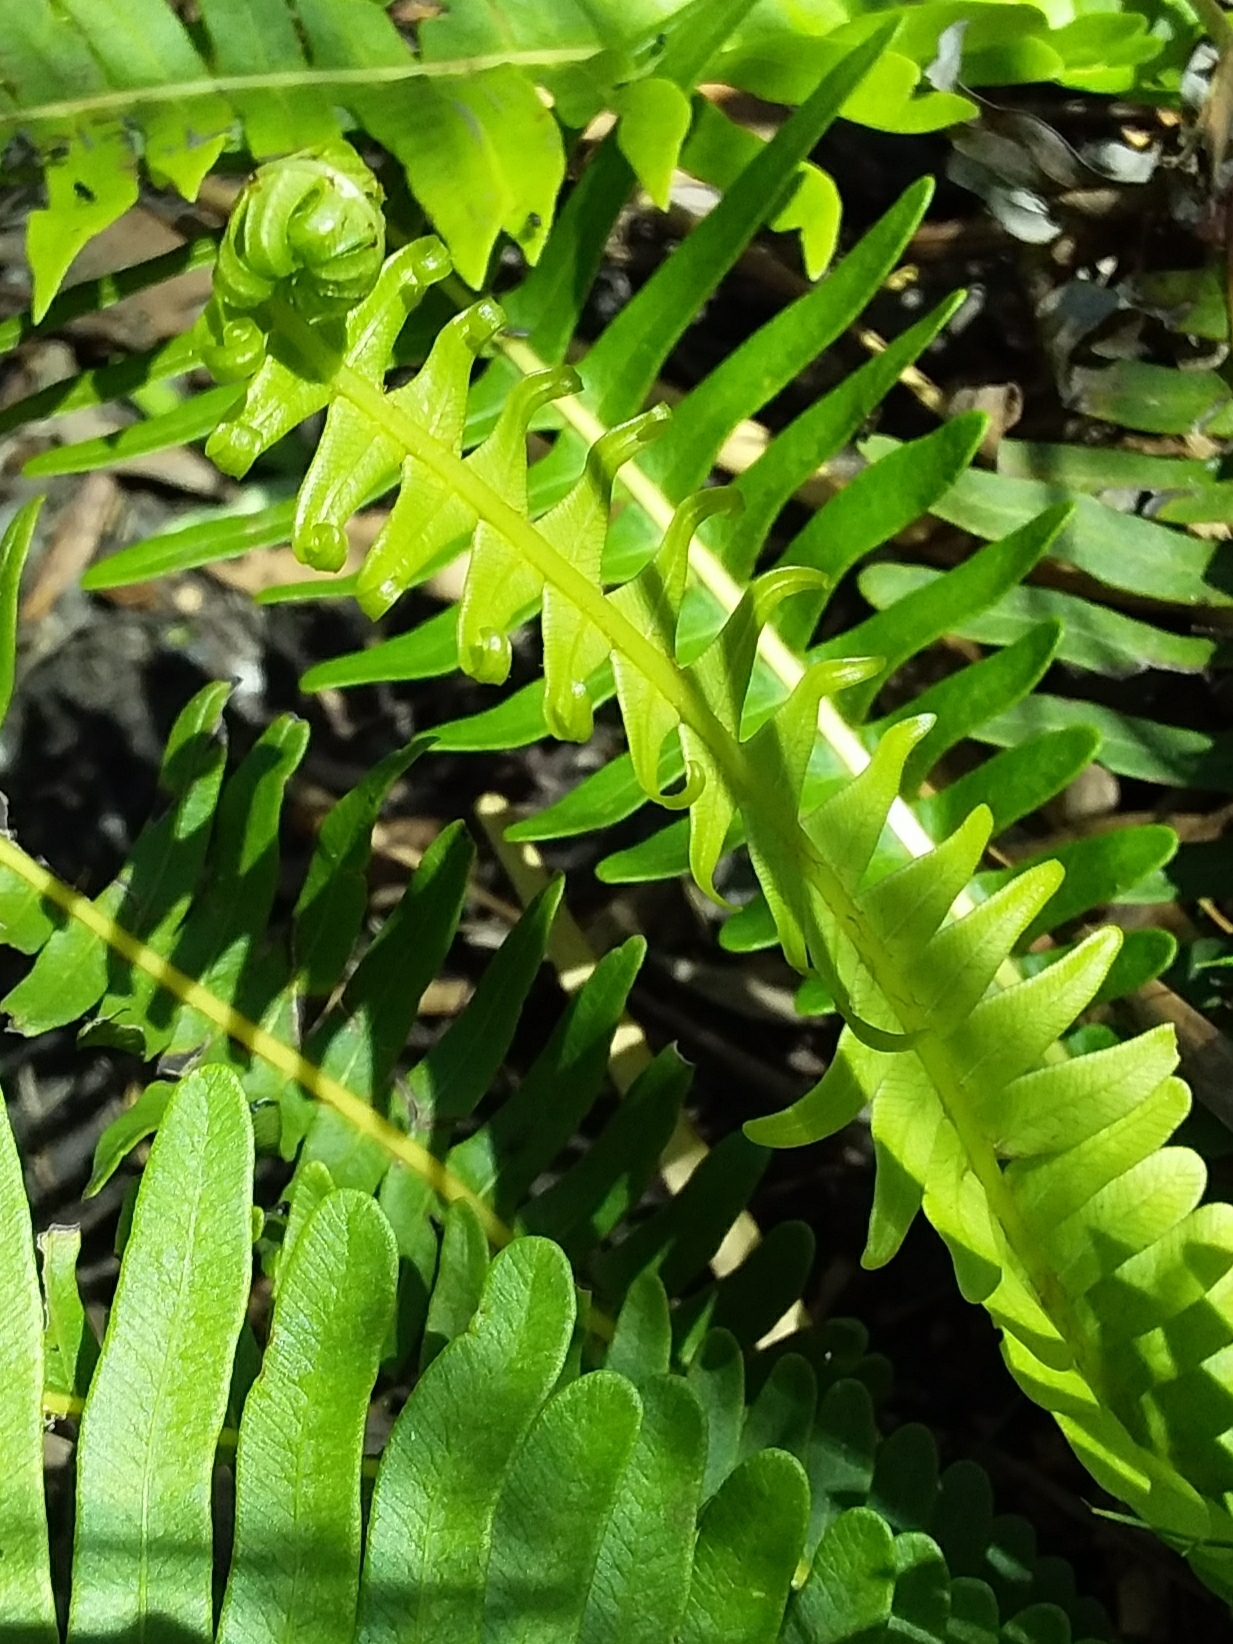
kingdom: Plantae
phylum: Tracheophyta
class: Polypodiopsida
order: Polypodiales
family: Blechnaceae
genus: Lomaria
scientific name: Lomaria nuda
